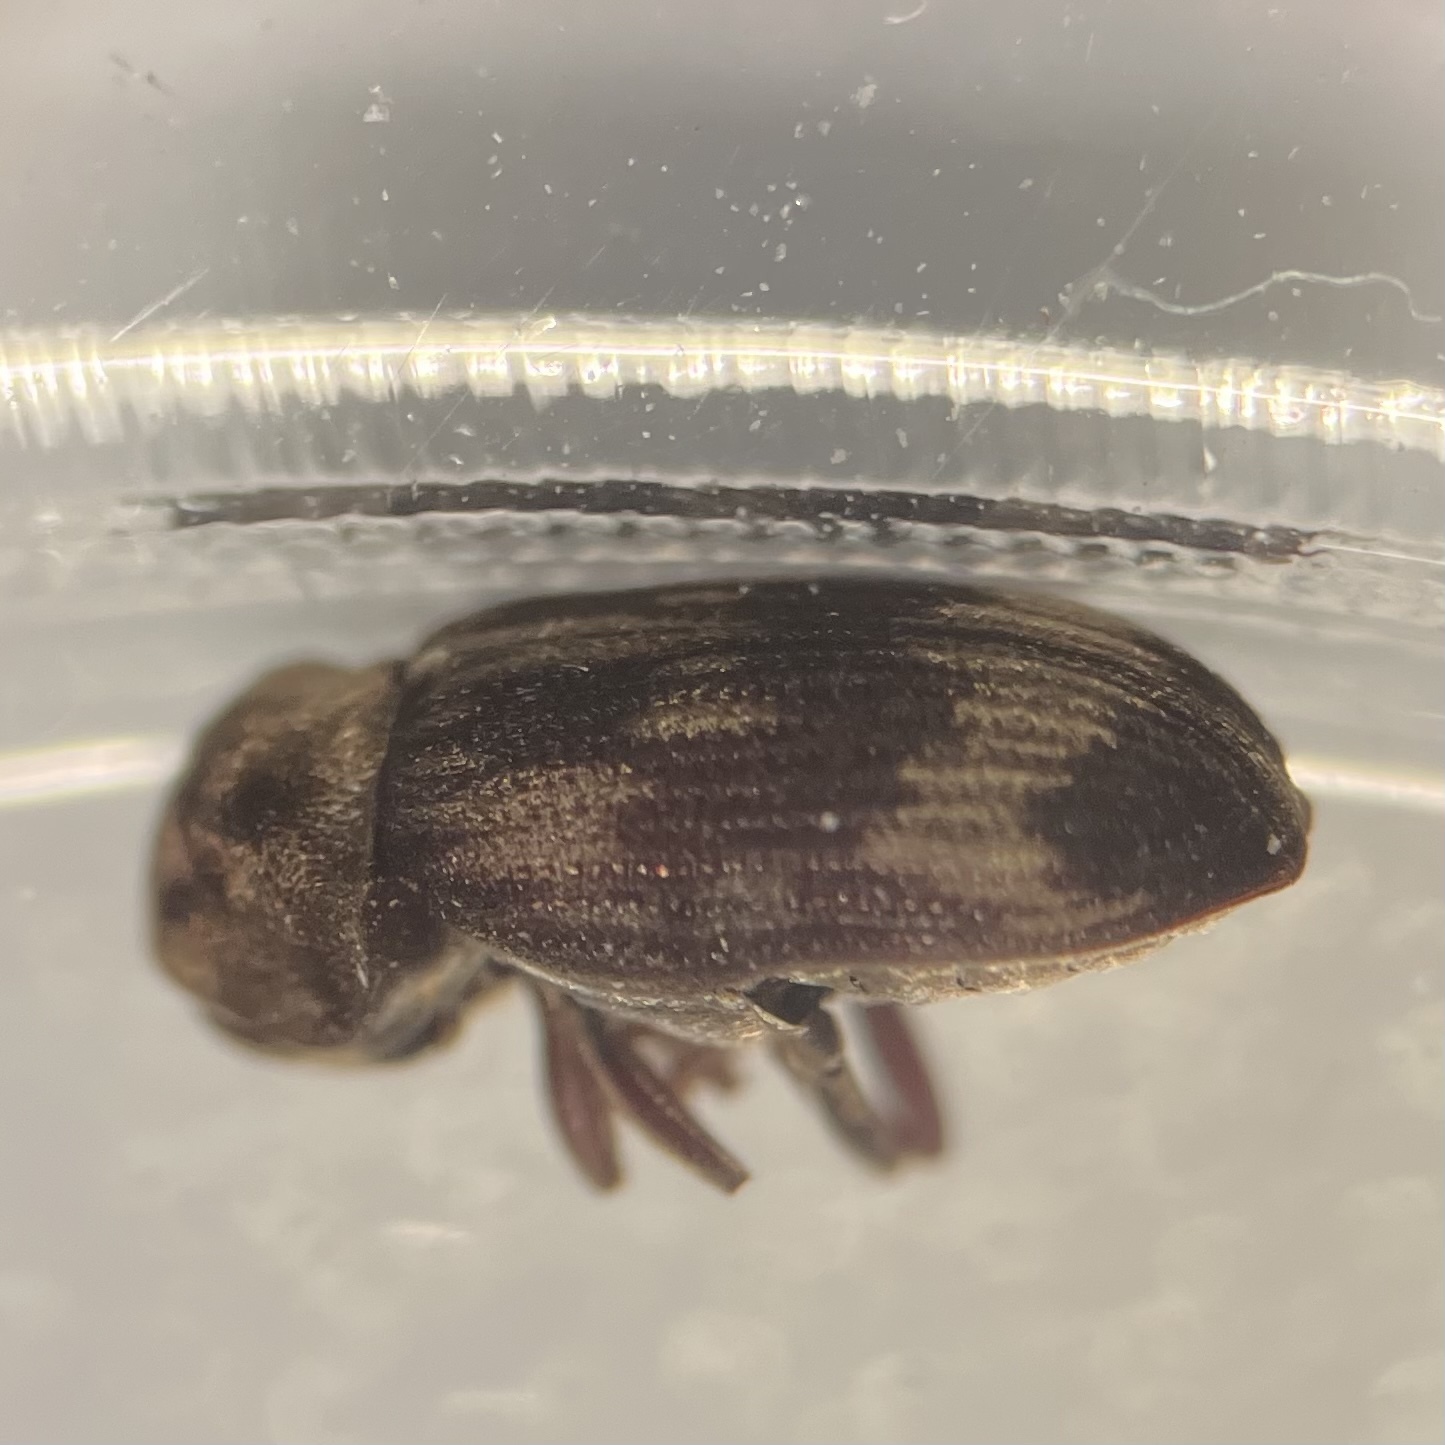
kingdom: Animalia
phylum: Arthropoda
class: Insecta
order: Coleoptera
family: Anobiidae
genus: Hadrobregmus
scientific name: Hadrobregmus notatus
